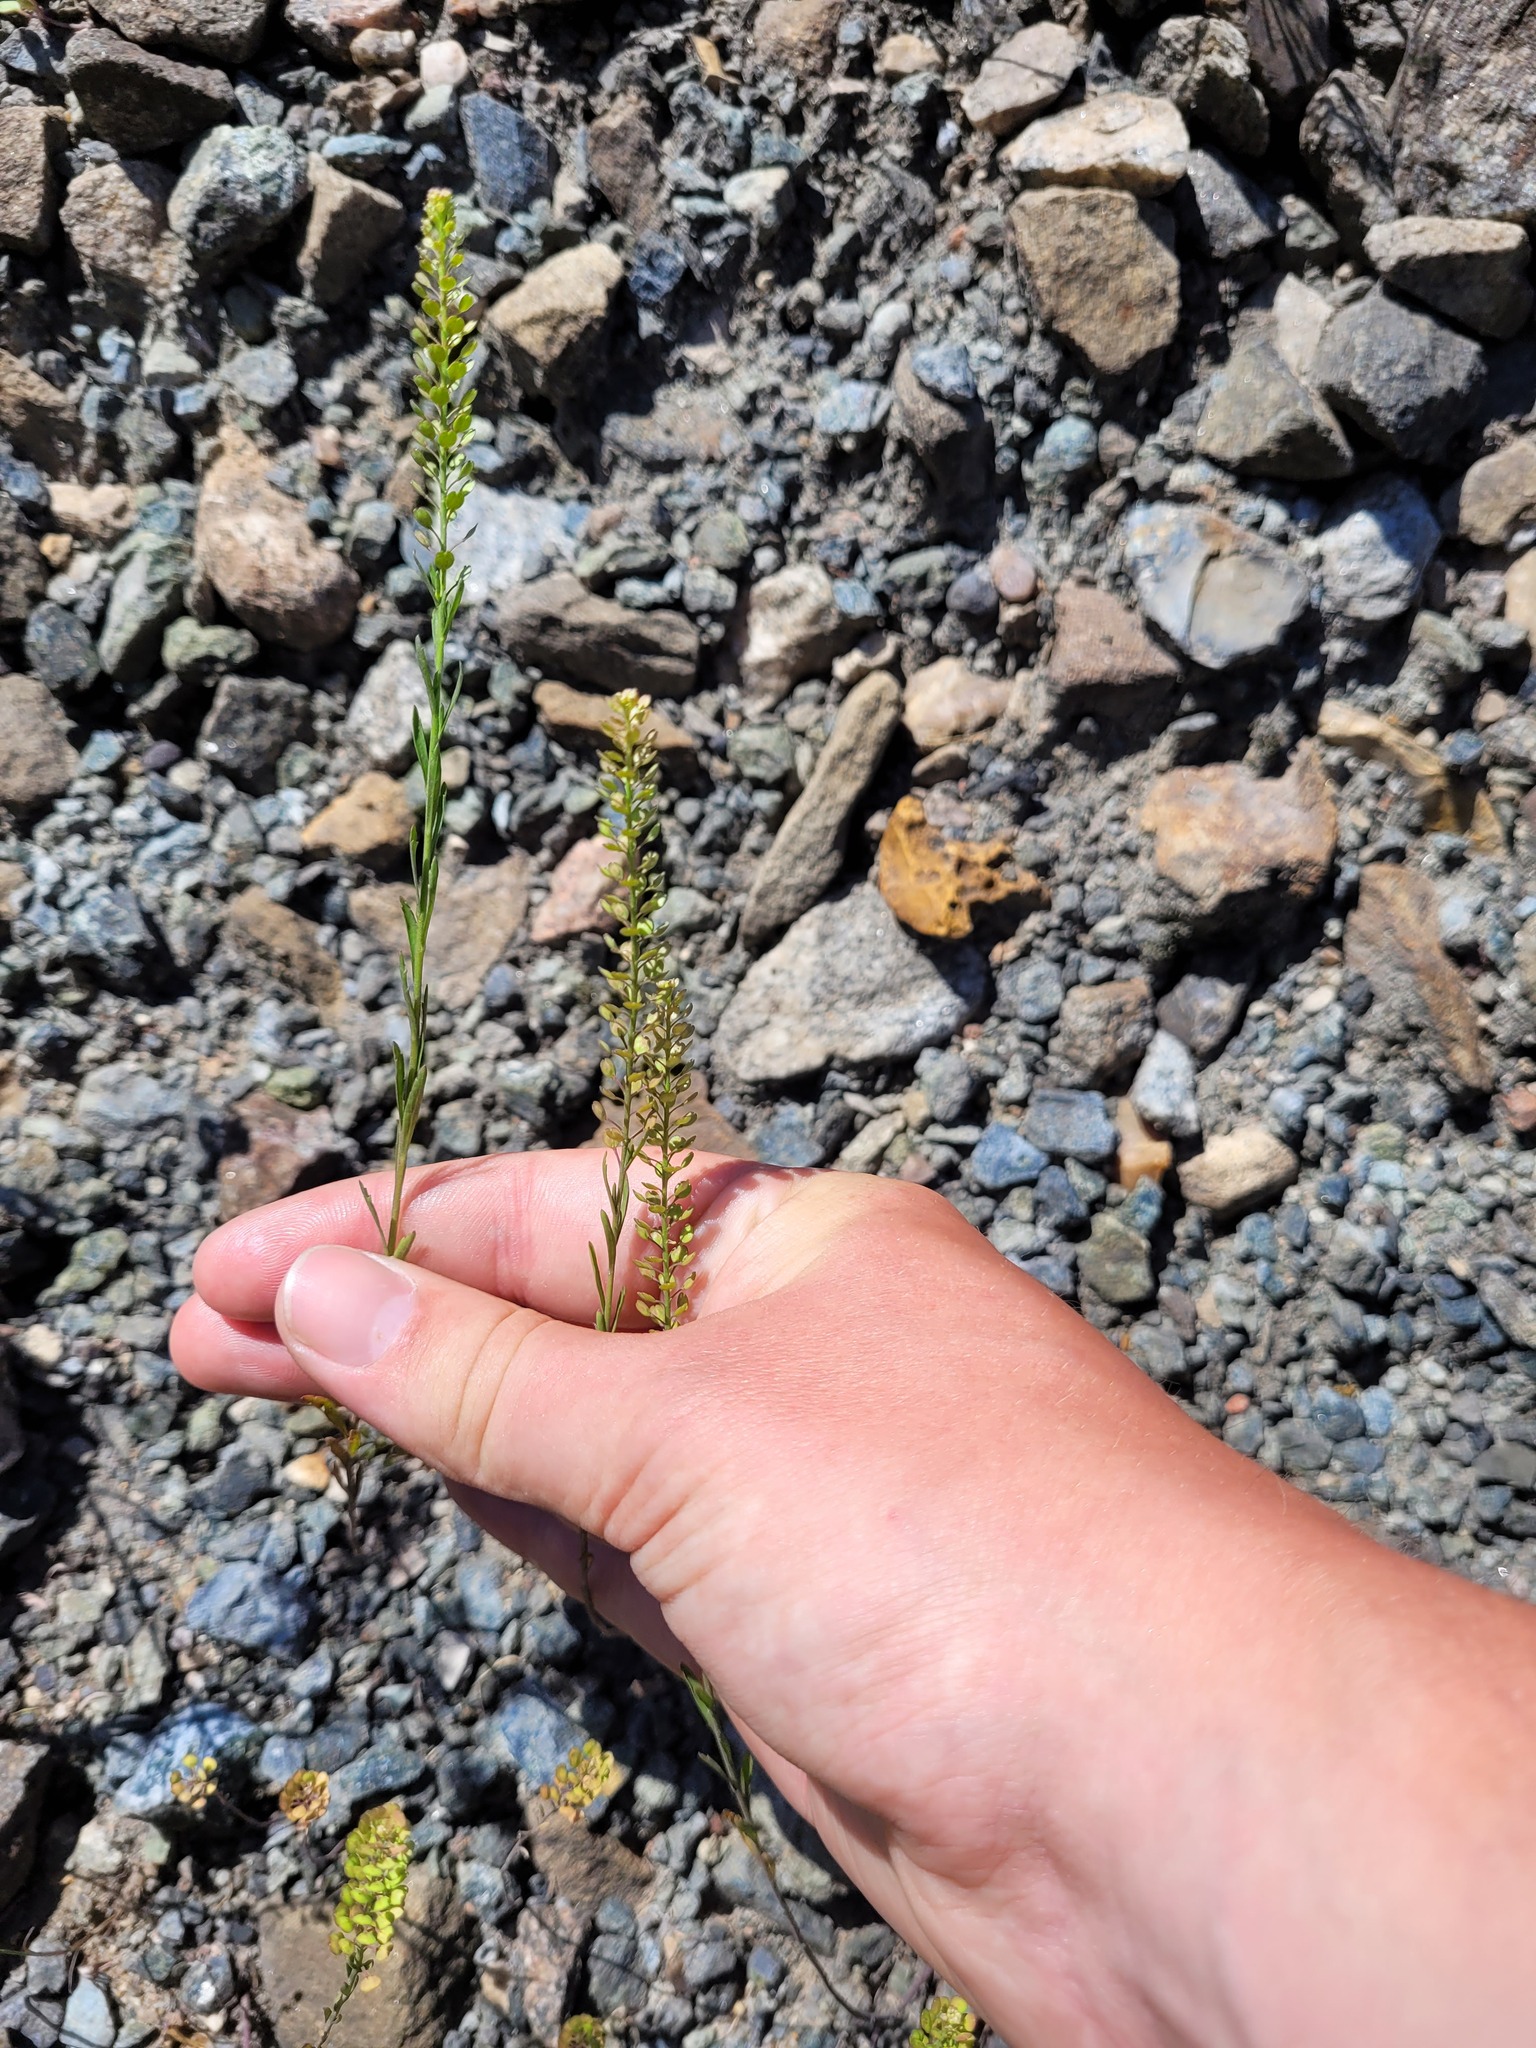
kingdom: Plantae
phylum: Tracheophyta
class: Magnoliopsida
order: Brassicales
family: Brassicaceae
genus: Lepidium
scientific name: Lepidium densiflorum
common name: Miner's pepperwort
